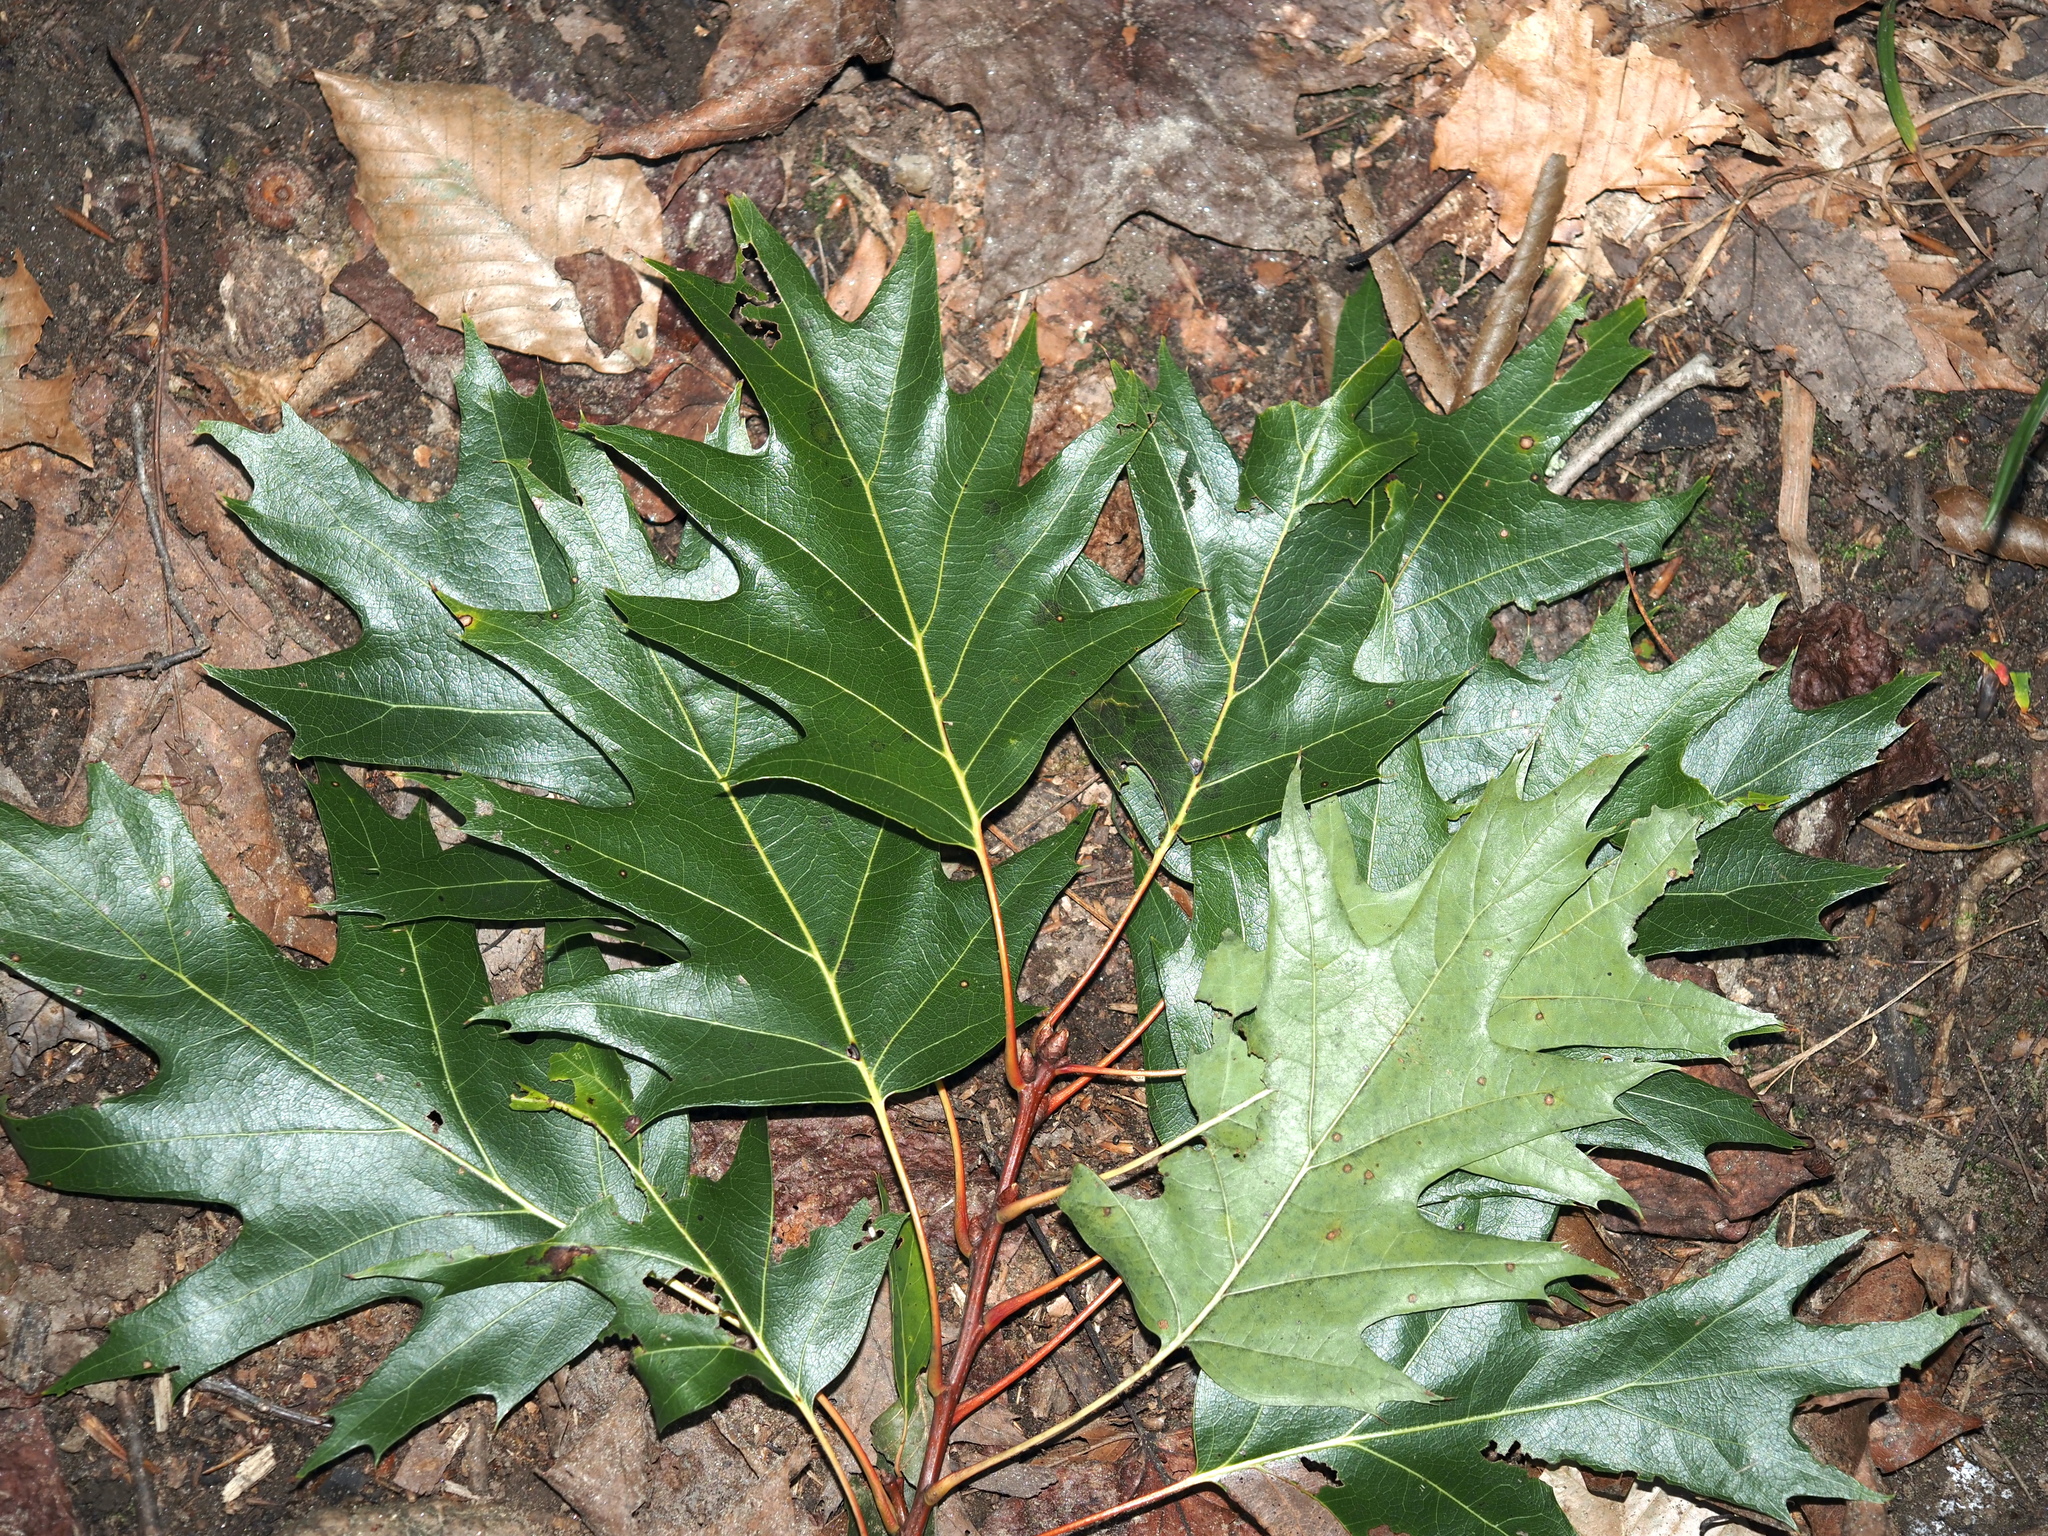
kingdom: Plantae
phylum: Tracheophyta
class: Magnoliopsida
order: Fagales
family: Fagaceae
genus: Quercus
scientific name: Quercus rubra
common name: Red oak
